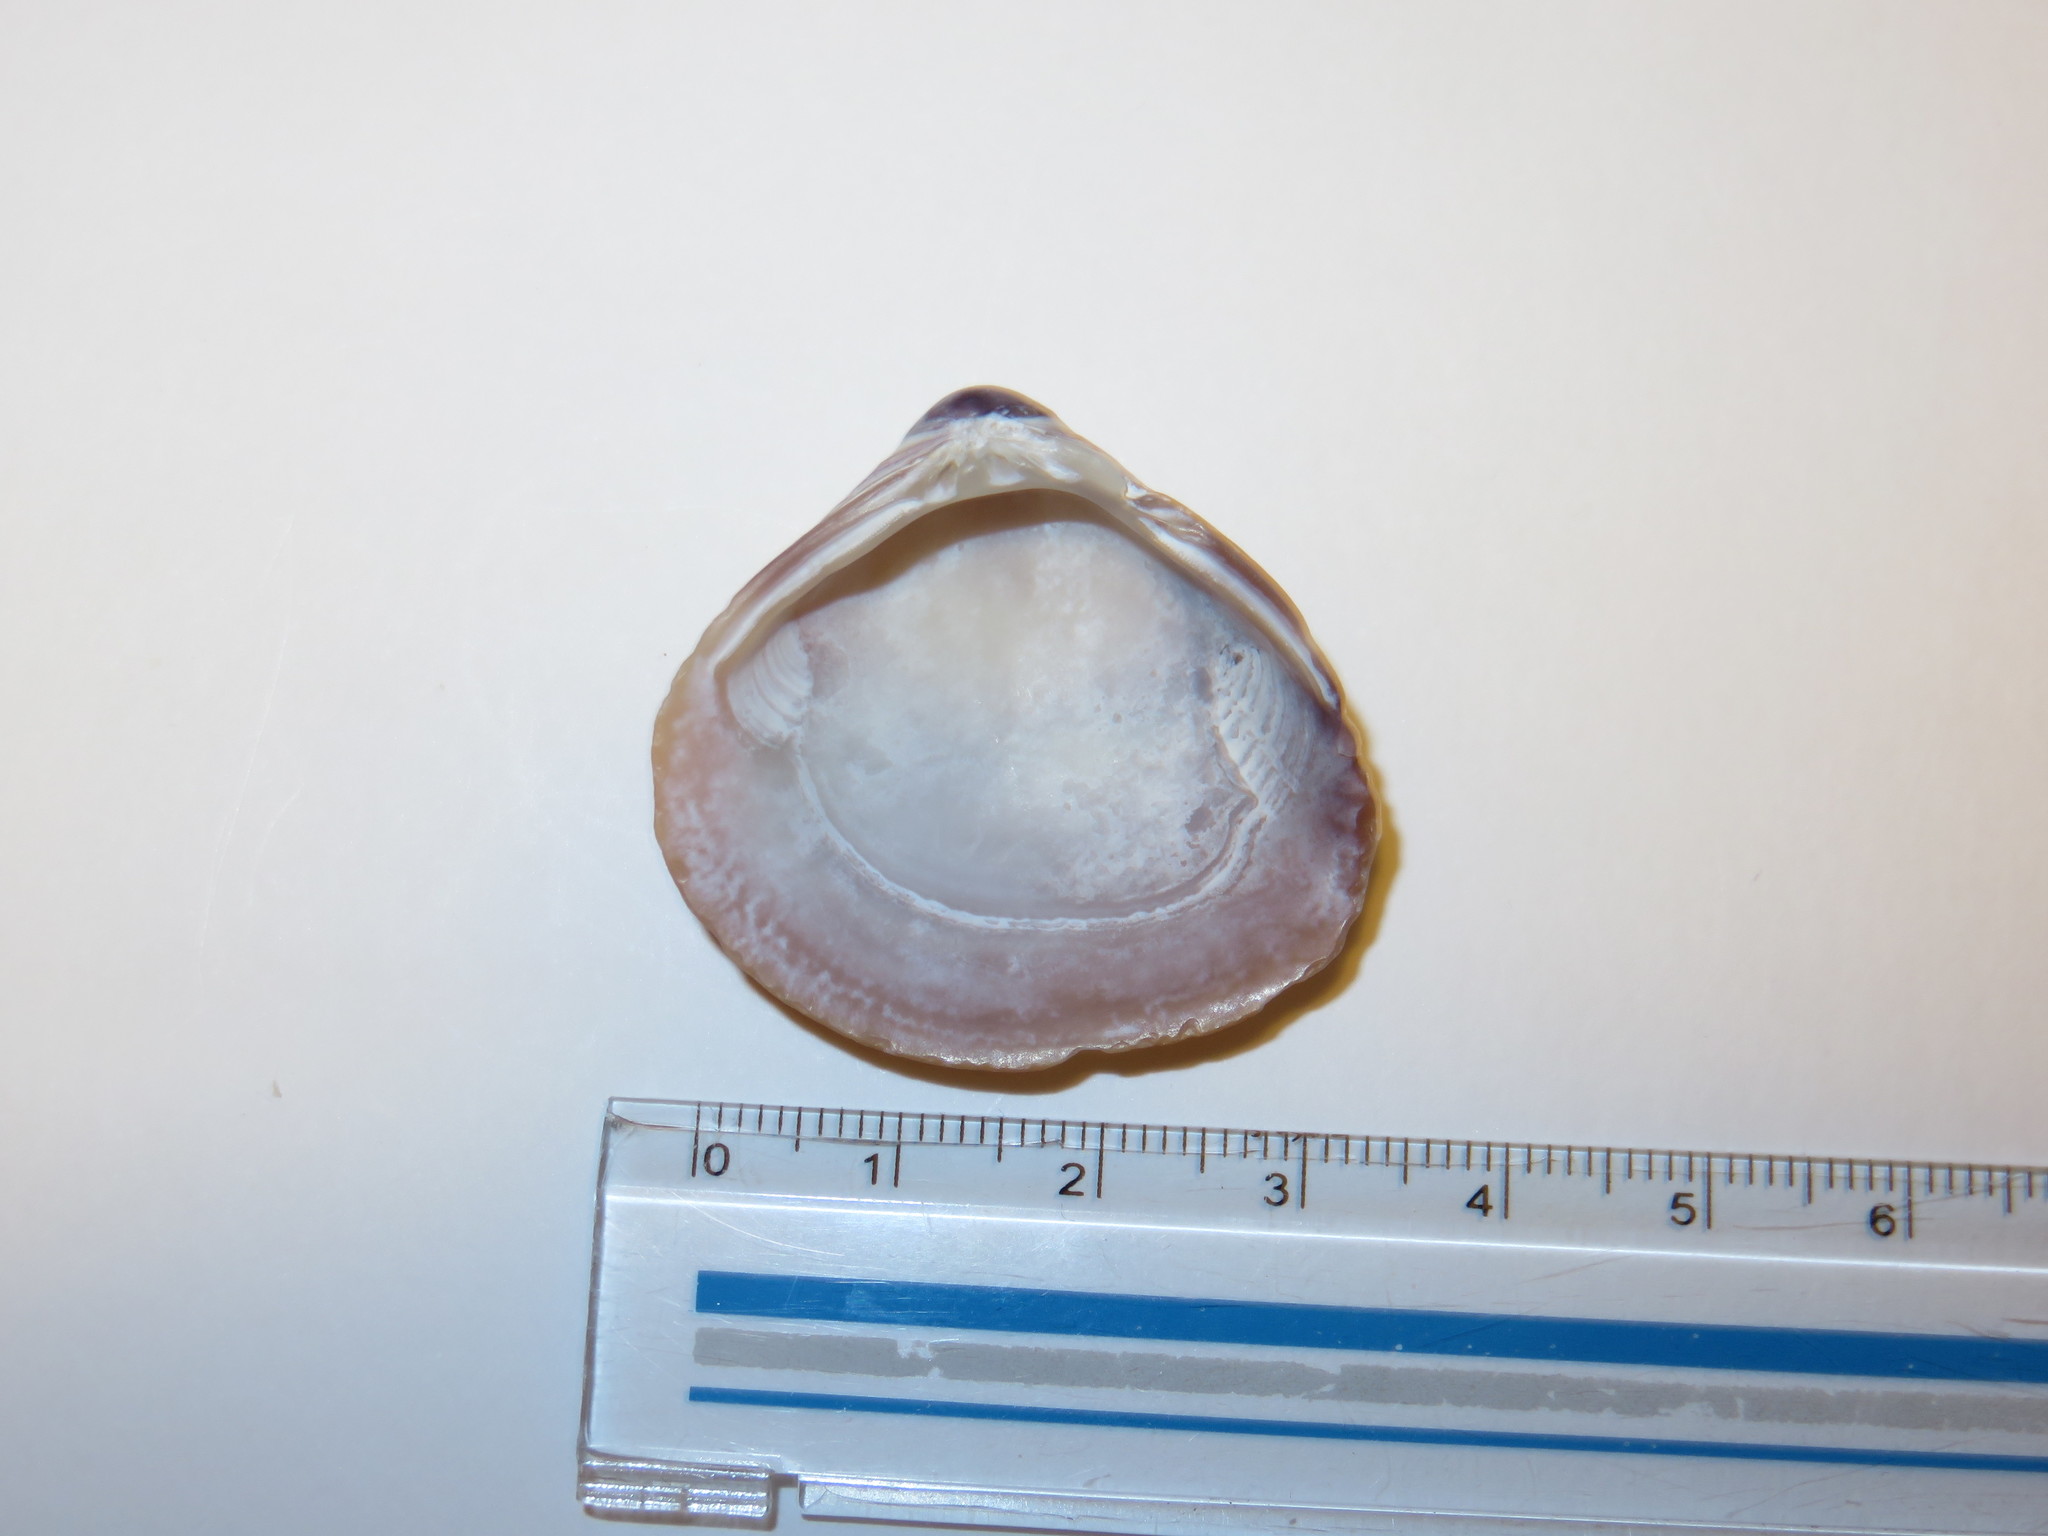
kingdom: Animalia
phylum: Mollusca
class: Bivalvia
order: Venerida
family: Cyrenidae
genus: Corbicula
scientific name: Corbicula japonica
